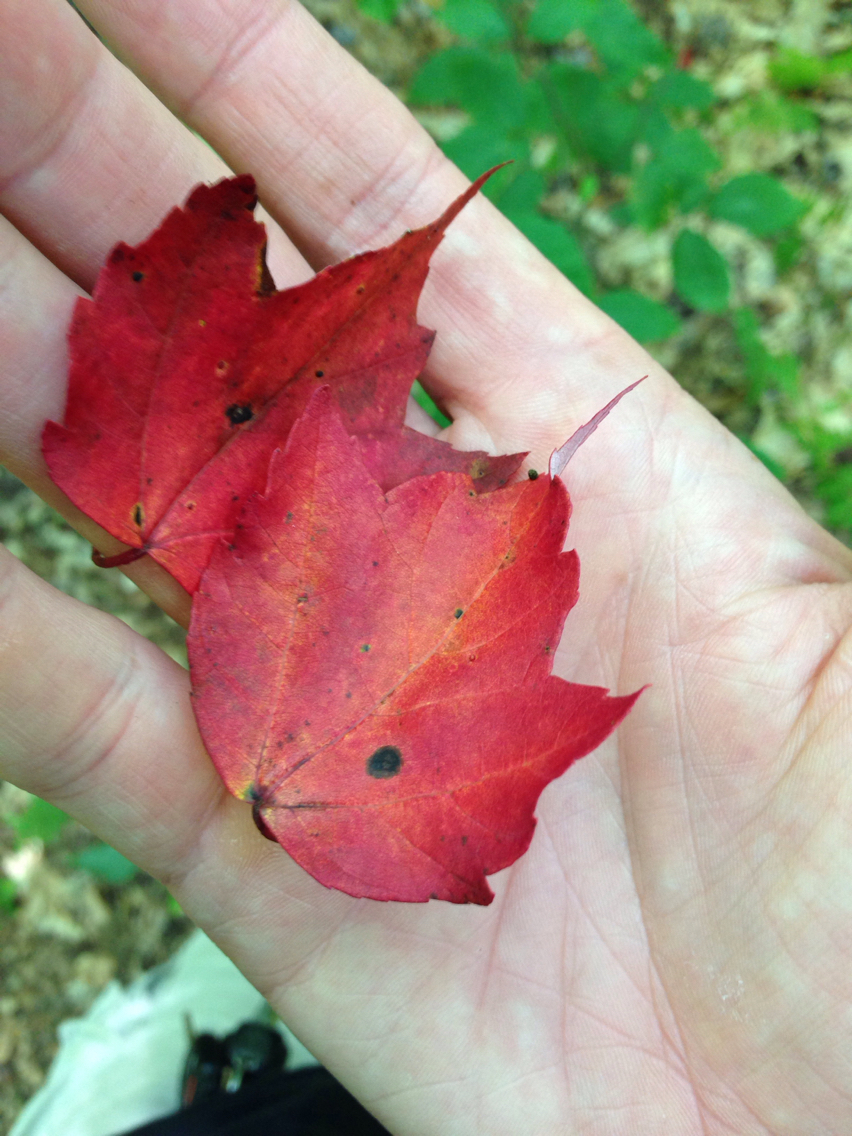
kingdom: Plantae
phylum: Tracheophyta
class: Magnoliopsida
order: Sapindales
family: Sapindaceae
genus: Acer
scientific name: Acer rubrum
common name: Red maple
